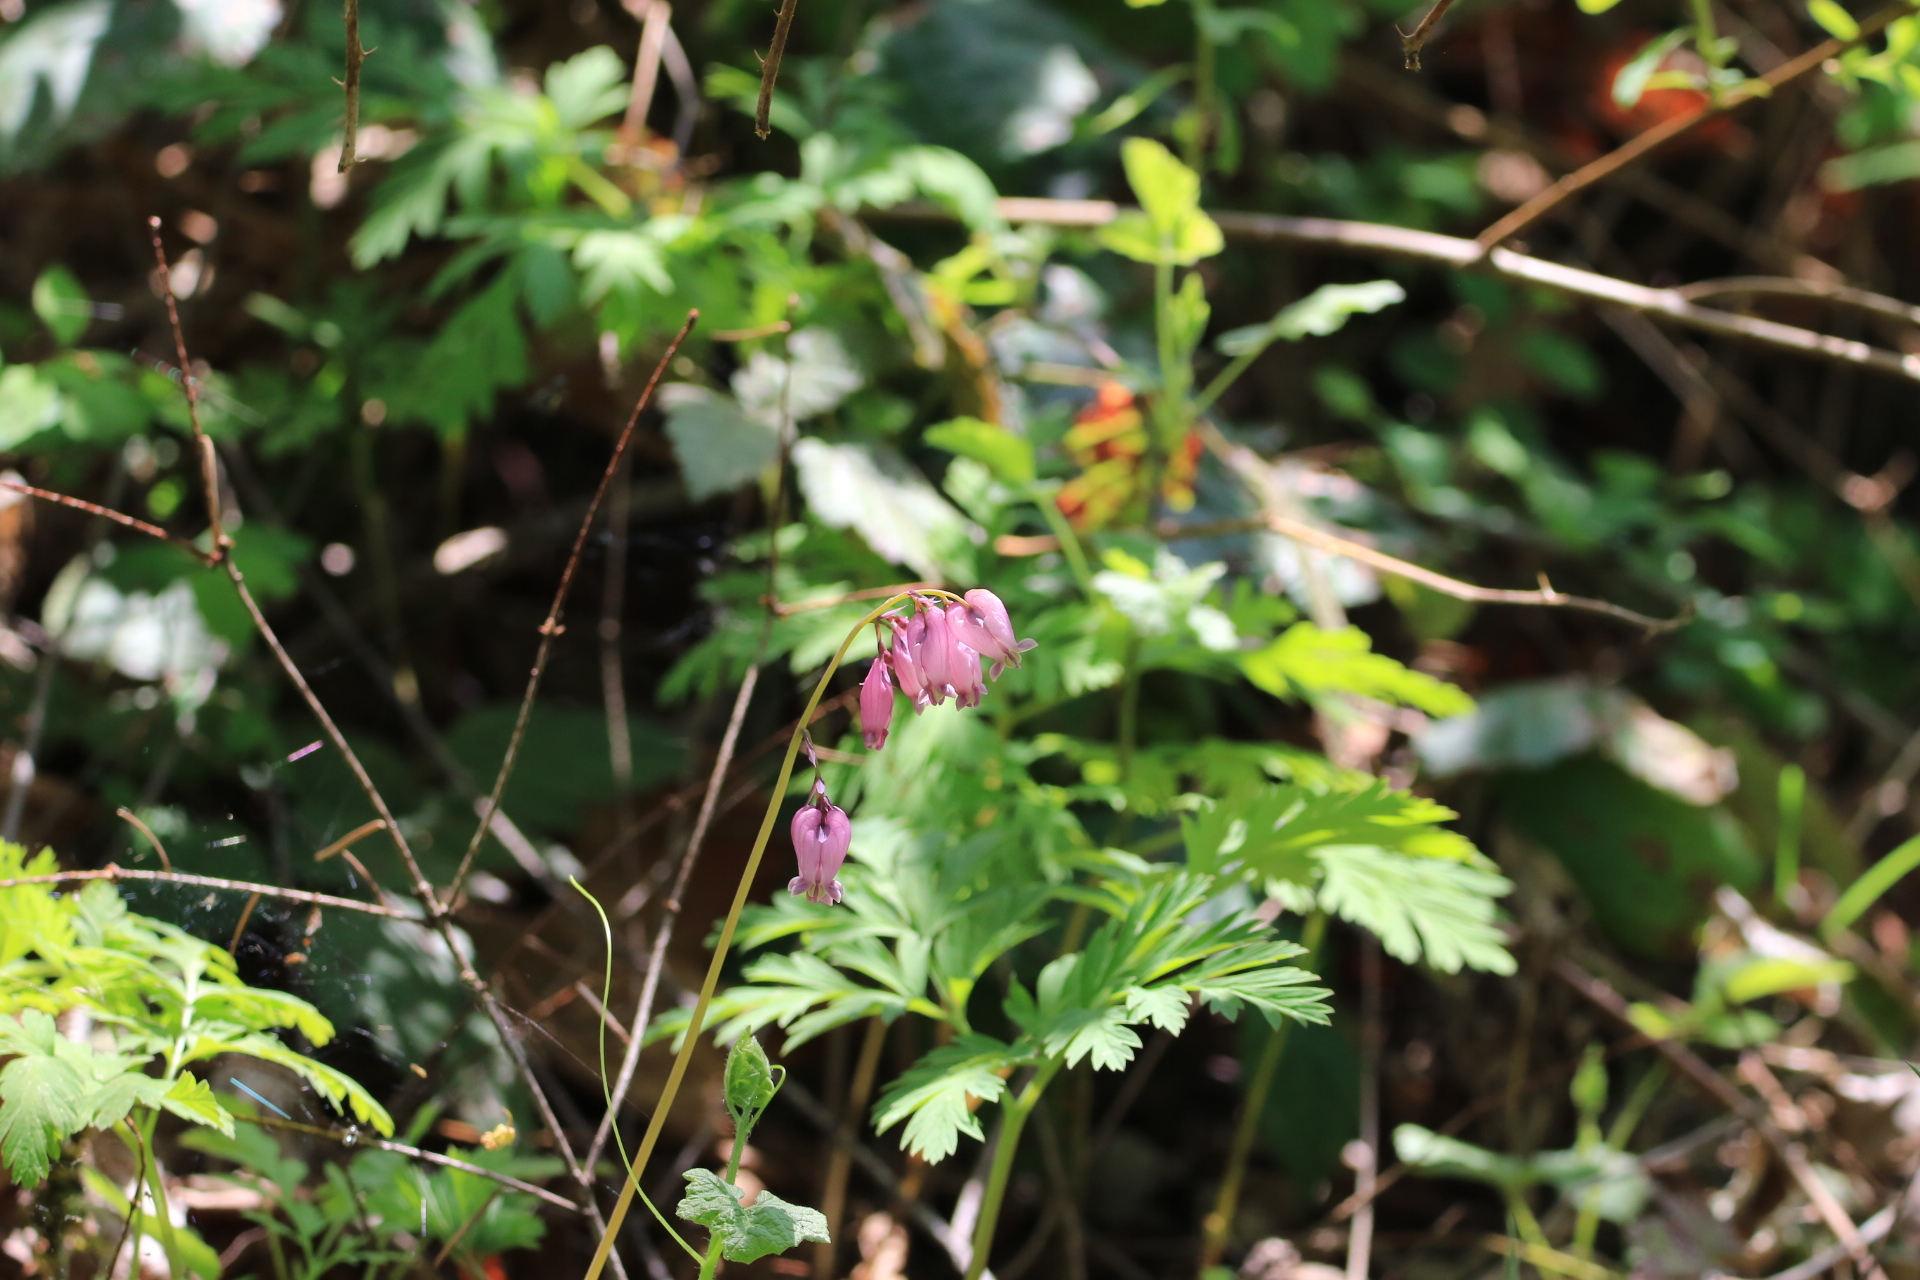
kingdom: Plantae
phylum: Tracheophyta
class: Magnoliopsida
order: Ranunculales
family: Papaveraceae
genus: Dicentra
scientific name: Dicentra formosa
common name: Bleeding-heart
